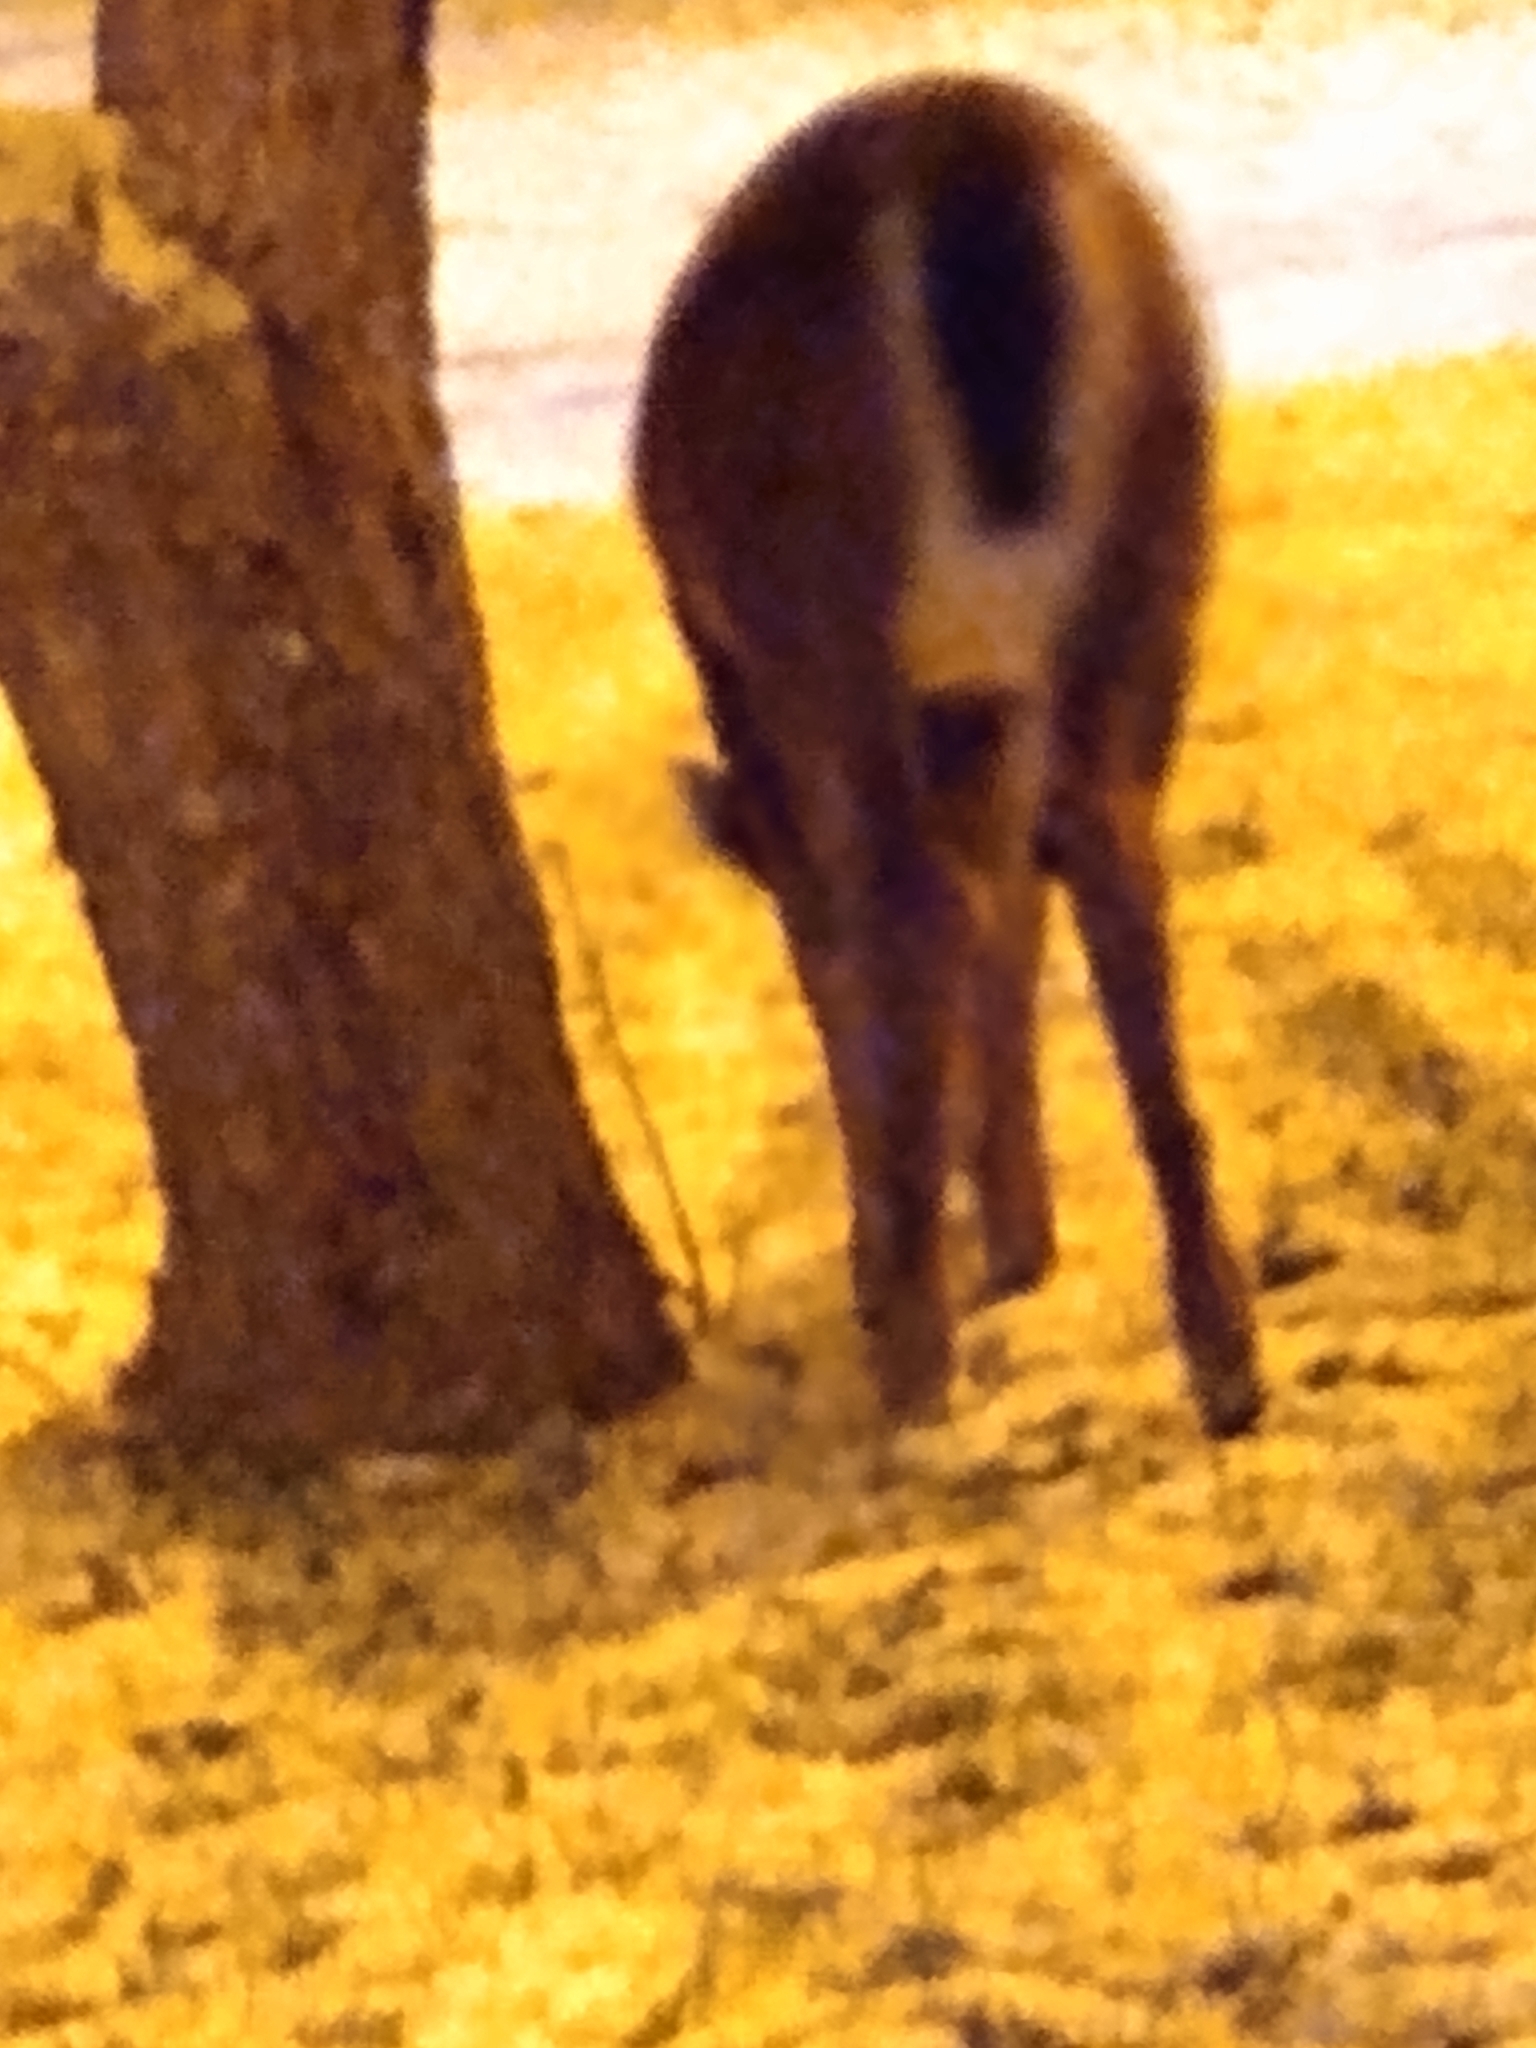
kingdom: Animalia
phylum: Chordata
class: Mammalia
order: Artiodactyla
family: Cervidae
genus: Odocoileus
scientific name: Odocoileus virginianus
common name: White-tailed deer
